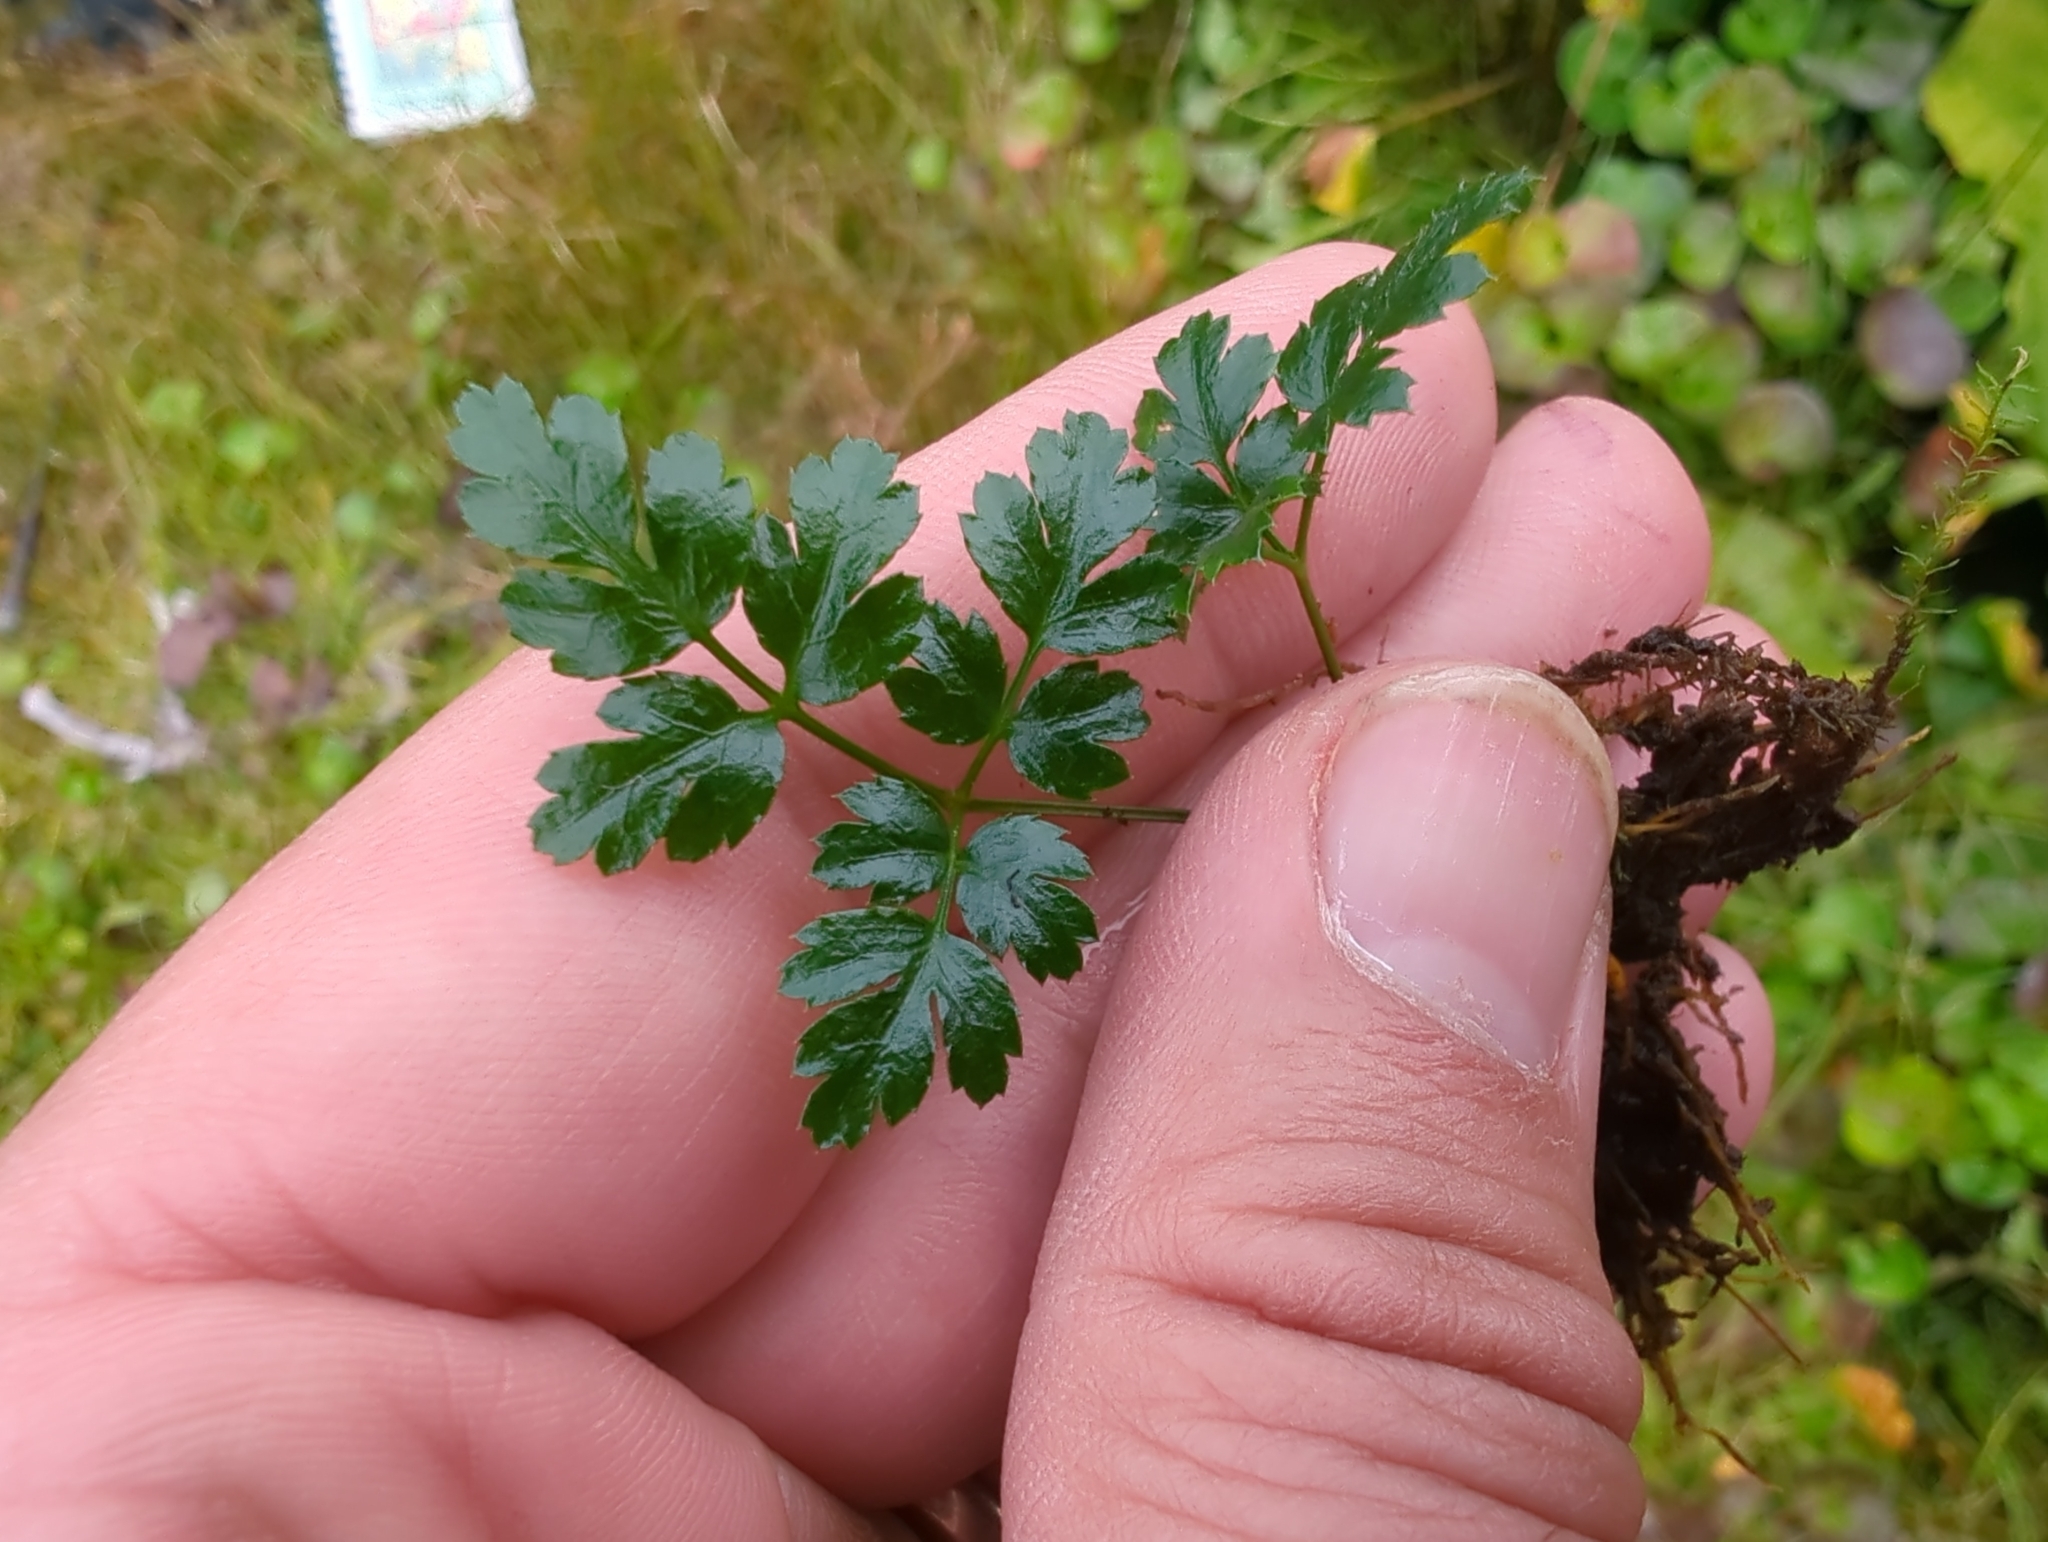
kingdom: Plantae
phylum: Tracheophyta
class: Magnoliopsida
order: Ranunculales
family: Ranunculaceae
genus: Coptis
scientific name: Coptis aspleniifolia
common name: Fern-leaved goldthread
